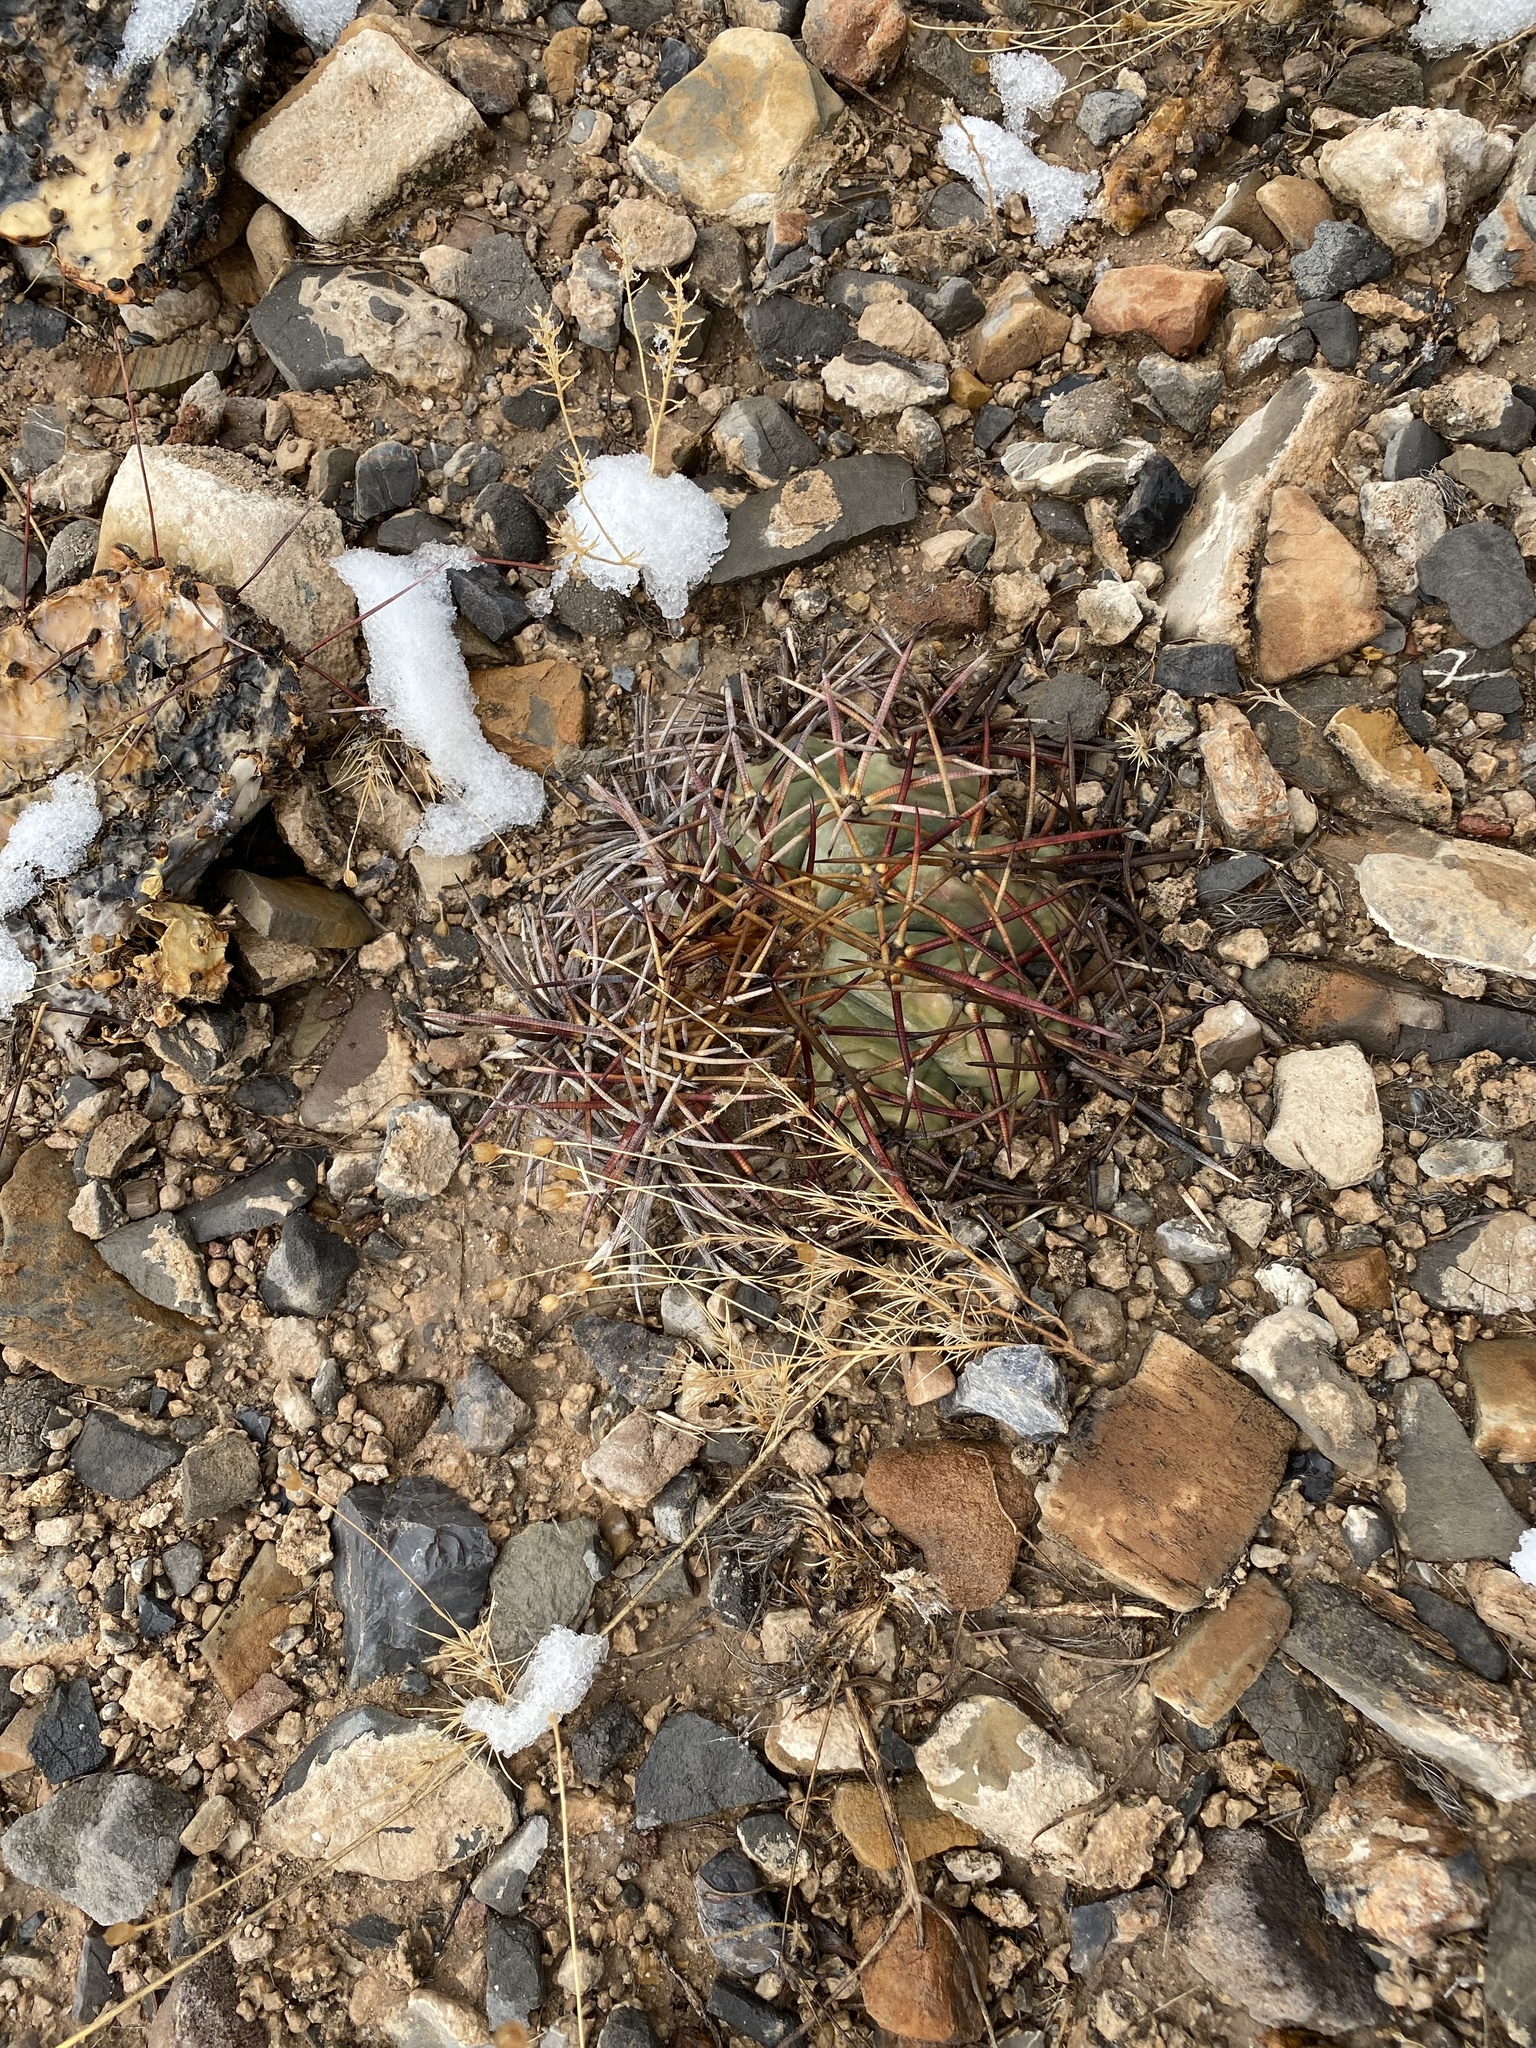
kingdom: Plantae
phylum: Tracheophyta
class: Magnoliopsida
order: Caryophyllales
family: Cactaceae
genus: Echinocactus
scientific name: Echinocactus horizonthalonius
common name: Devilshead
